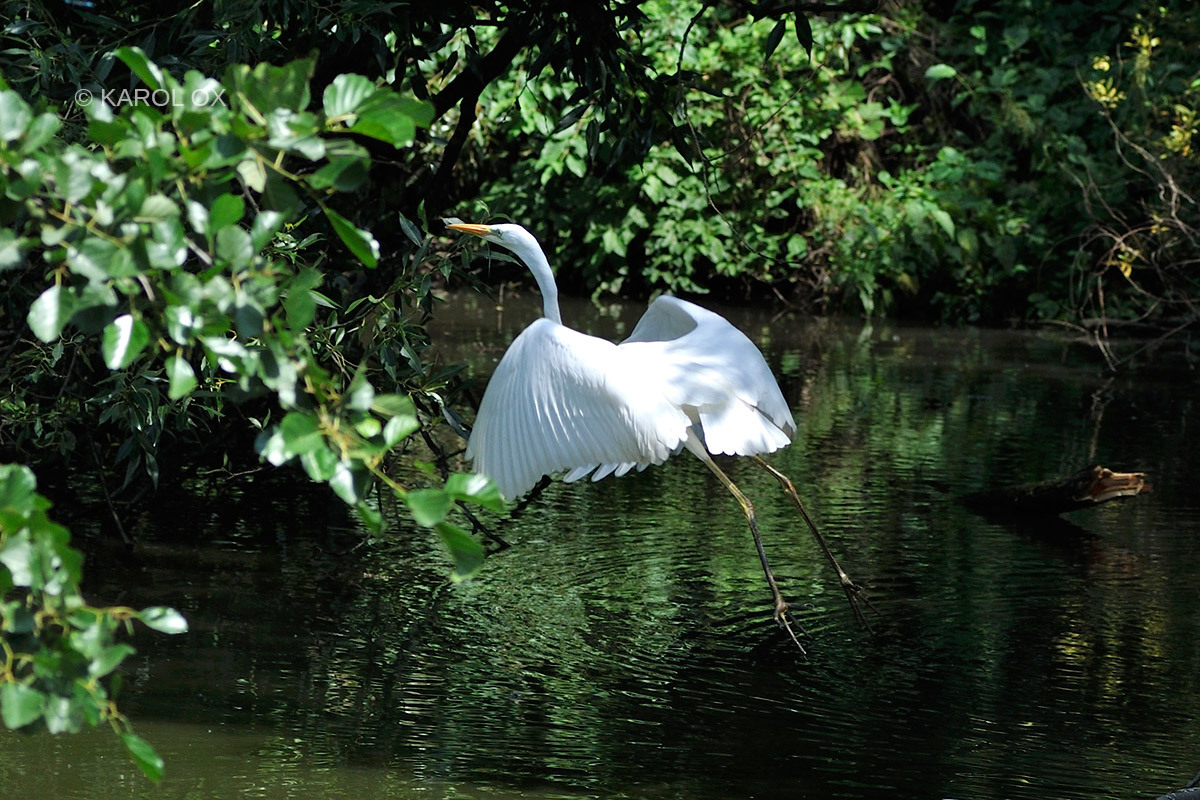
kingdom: Animalia
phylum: Chordata
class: Aves
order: Pelecaniformes
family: Ardeidae
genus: Ardea
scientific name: Ardea alba
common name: Great egret
